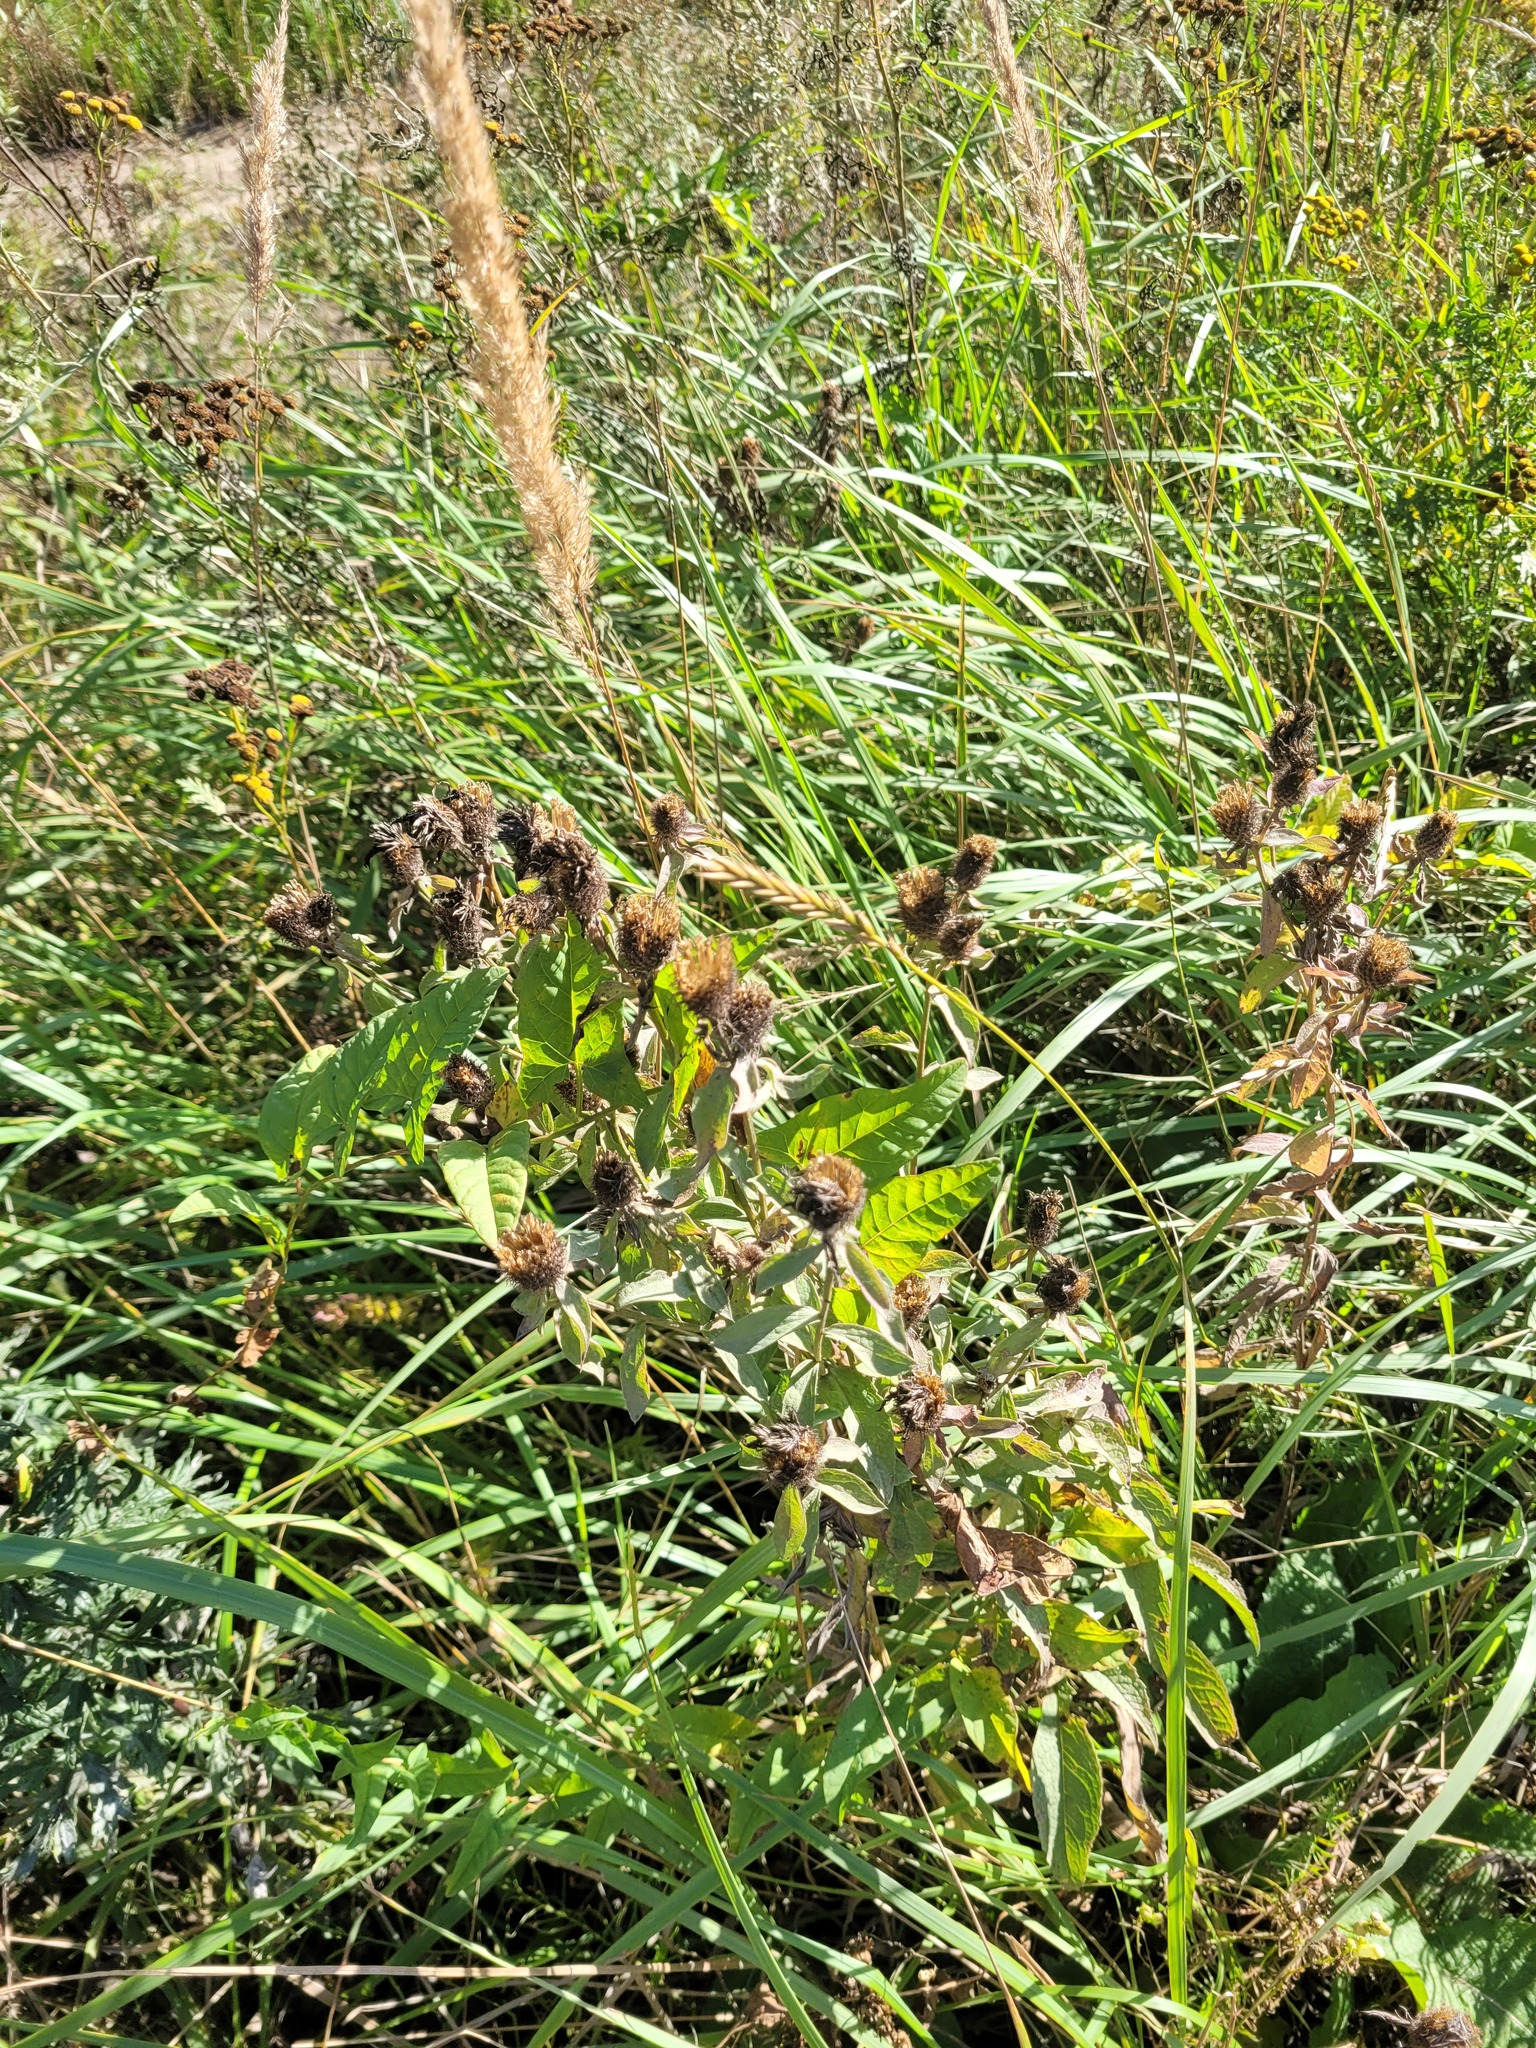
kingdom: Plantae
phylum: Tracheophyta
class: Magnoliopsida
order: Asterales
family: Asteraceae
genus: Centaurea
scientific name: Centaurea pseudophrygia
